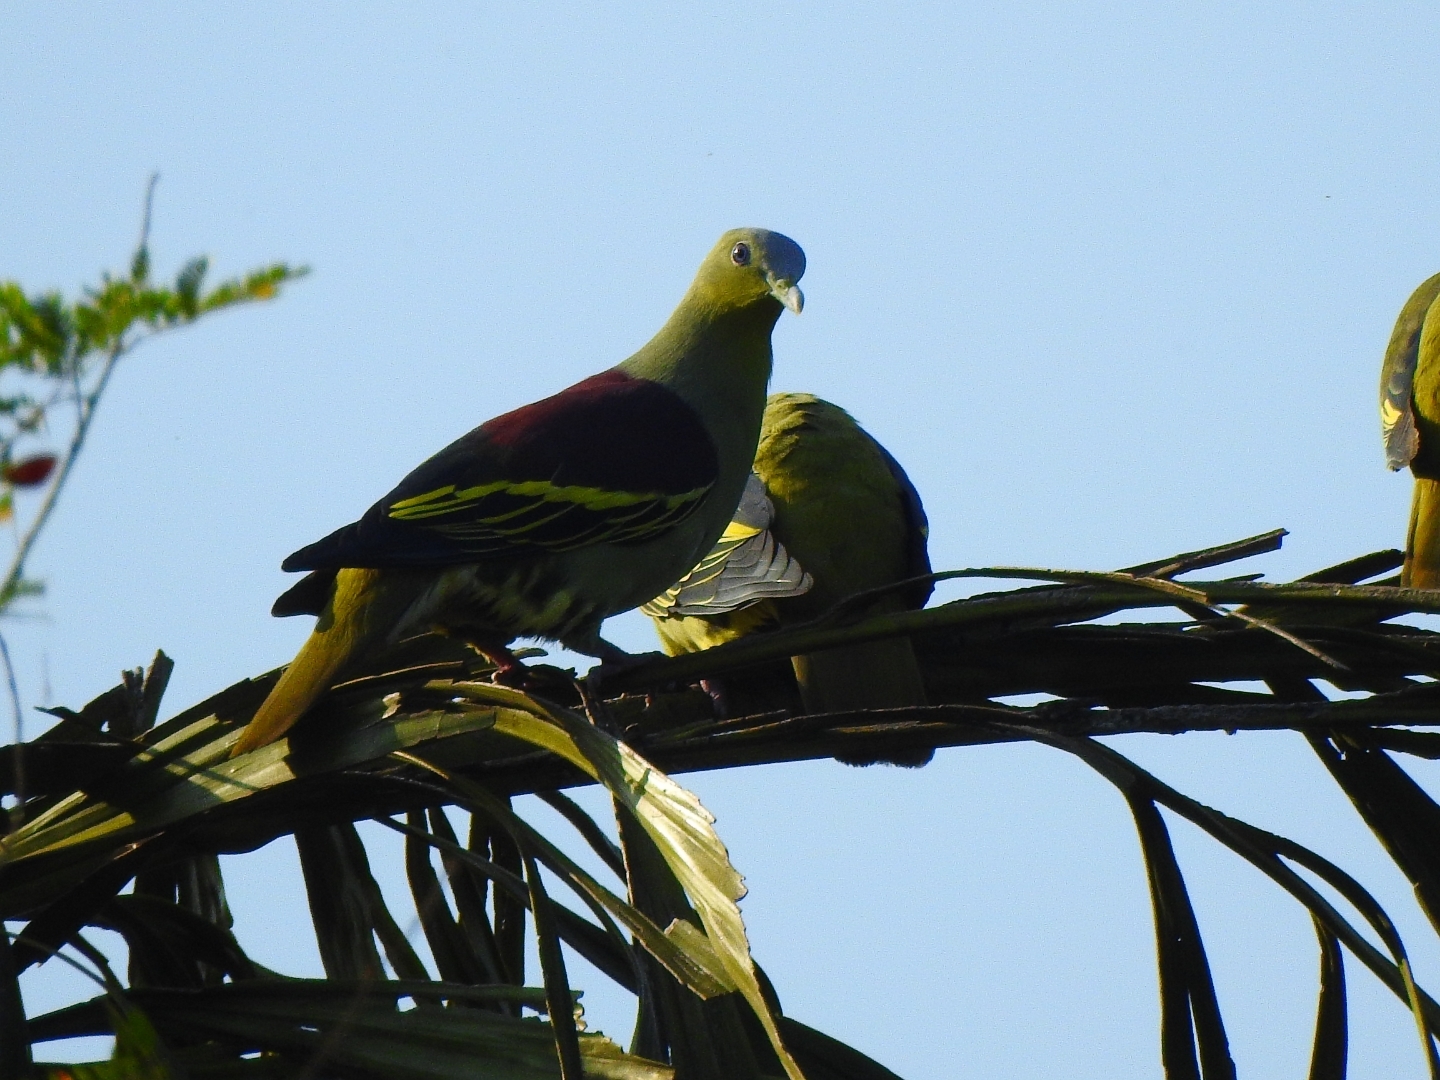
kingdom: Animalia
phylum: Chordata
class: Aves
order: Columbiformes
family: Columbidae
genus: Treron
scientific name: Treron affinis
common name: Grey-fronted green pigeon
